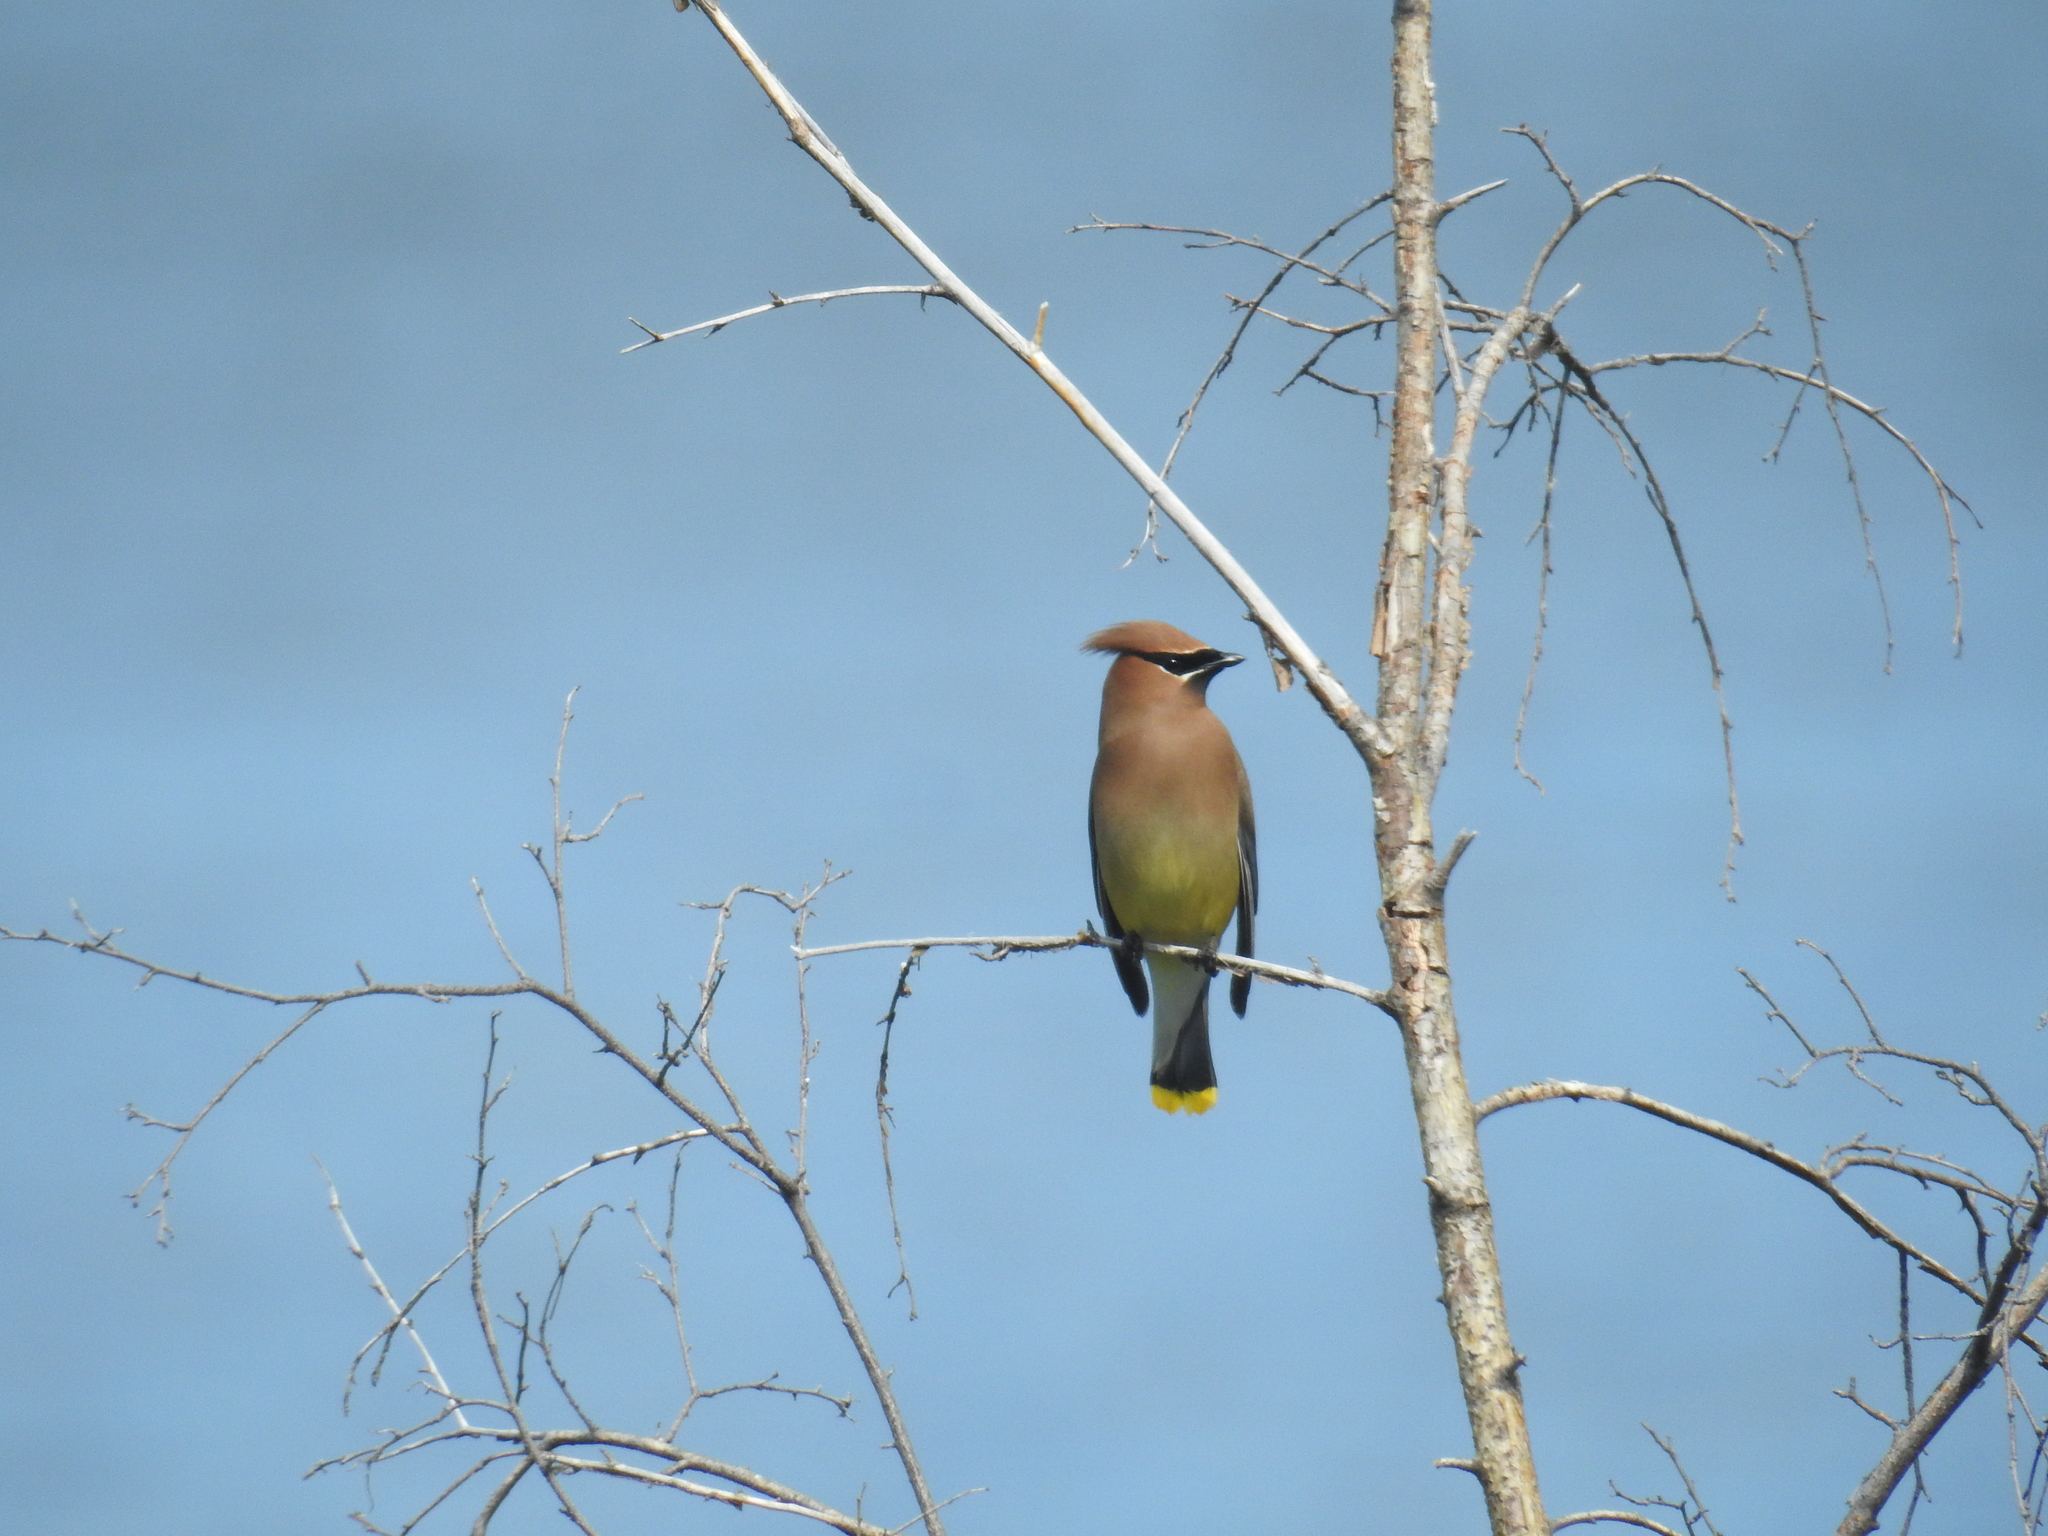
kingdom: Animalia
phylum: Chordata
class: Aves
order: Passeriformes
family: Bombycillidae
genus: Bombycilla
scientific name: Bombycilla cedrorum
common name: Cedar waxwing
